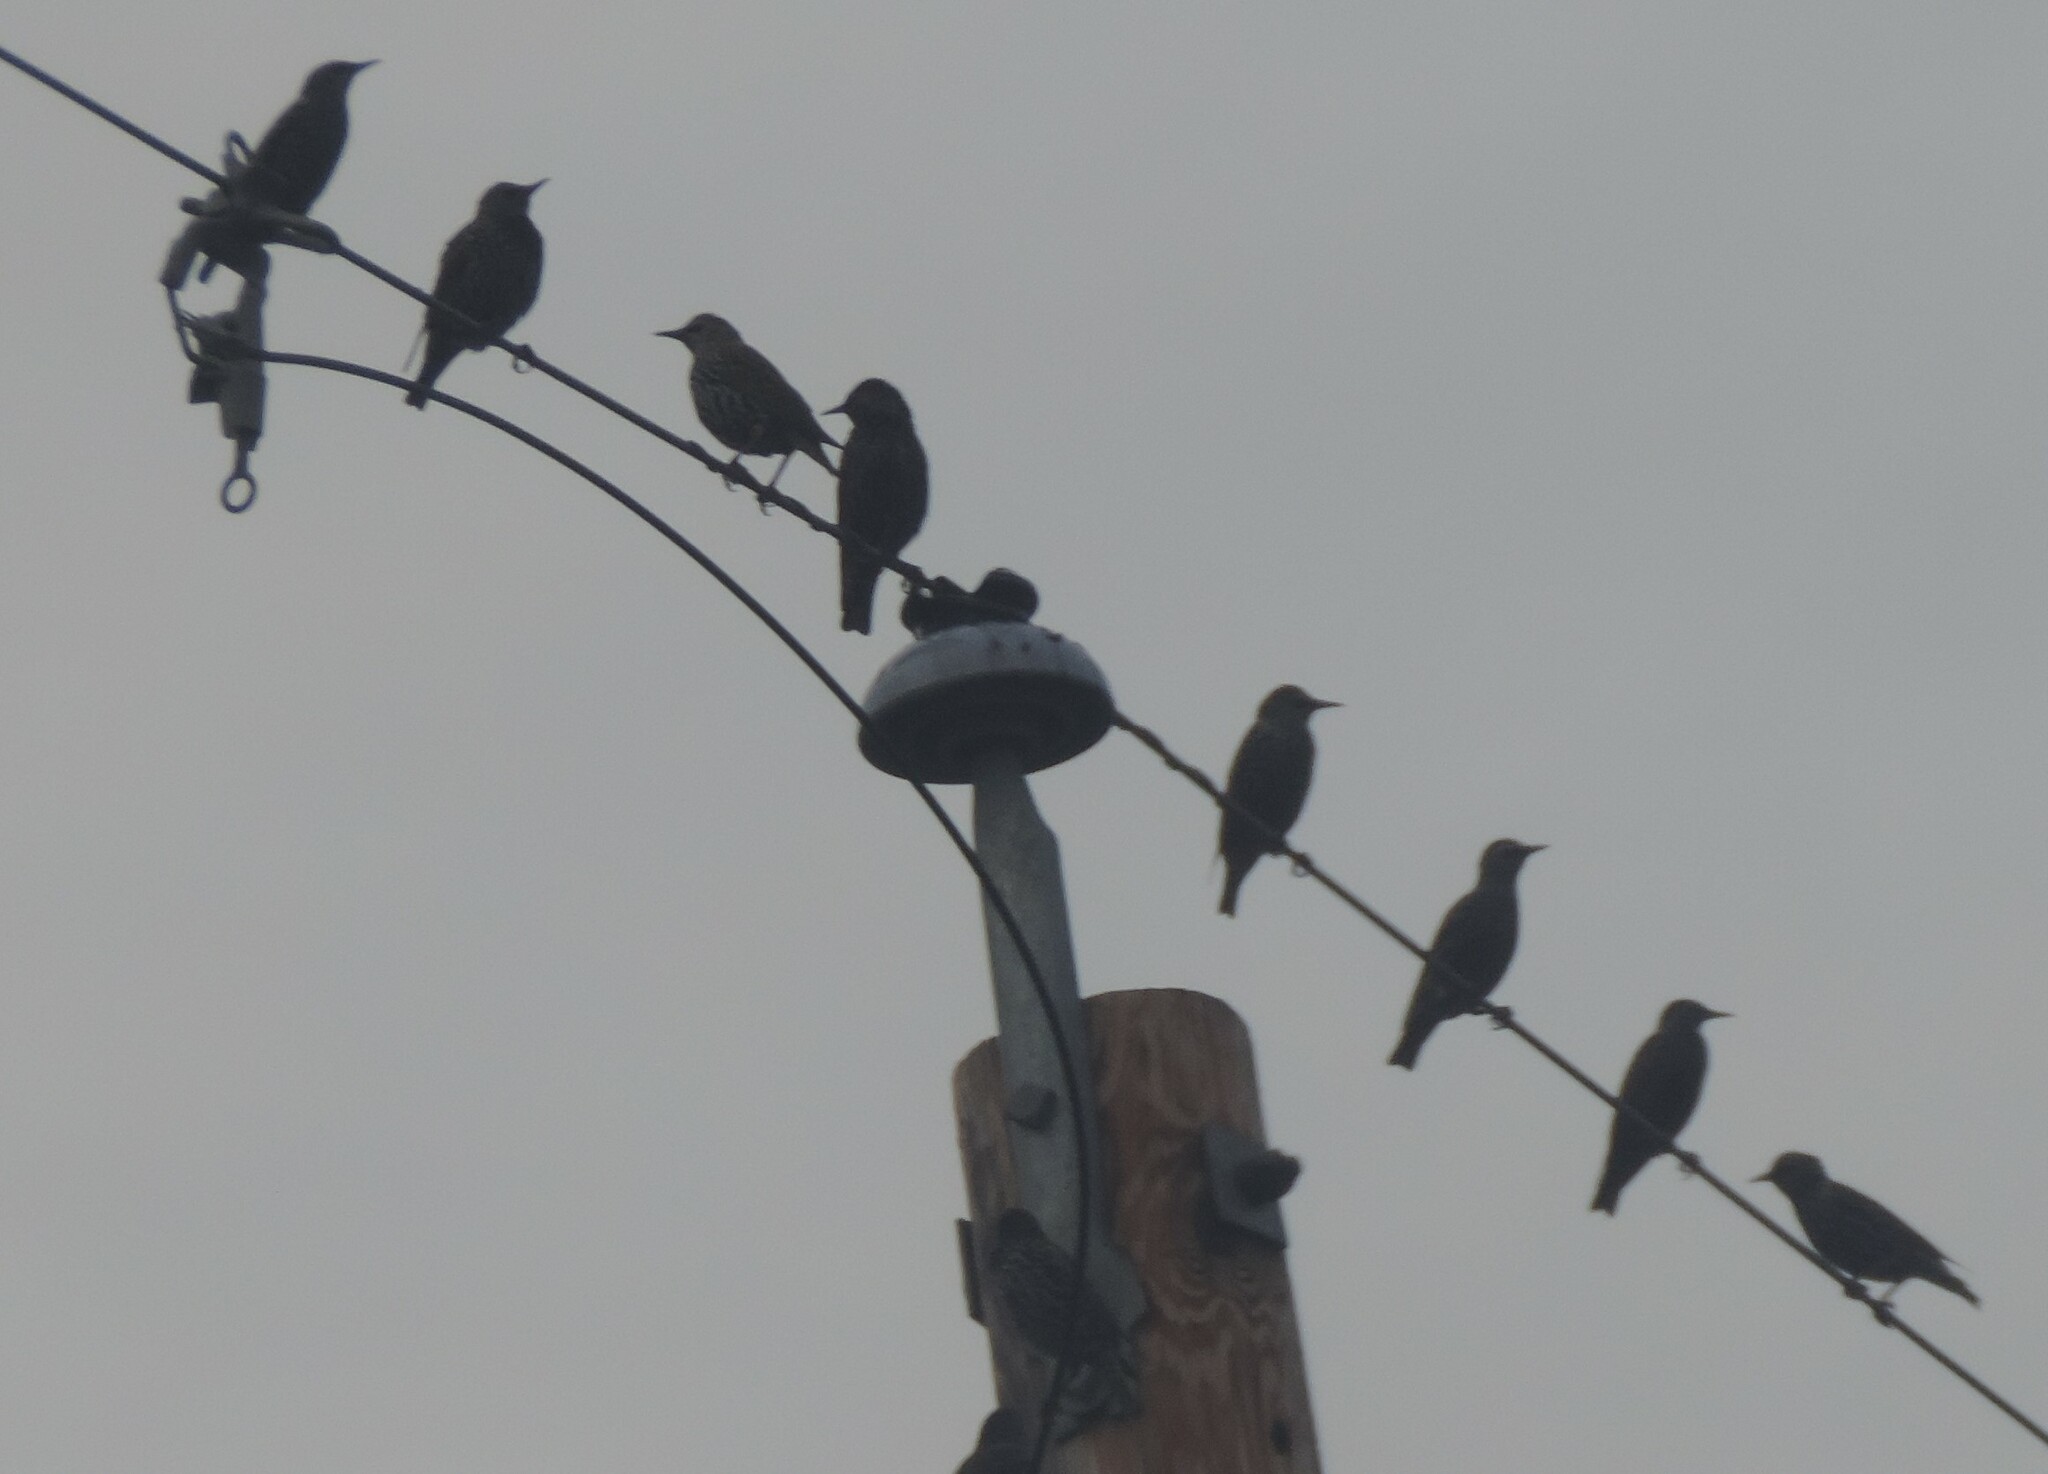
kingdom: Animalia
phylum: Chordata
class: Aves
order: Passeriformes
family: Sturnidae
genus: Sturnus
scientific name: Sturnus vulgaris
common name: Common starling
